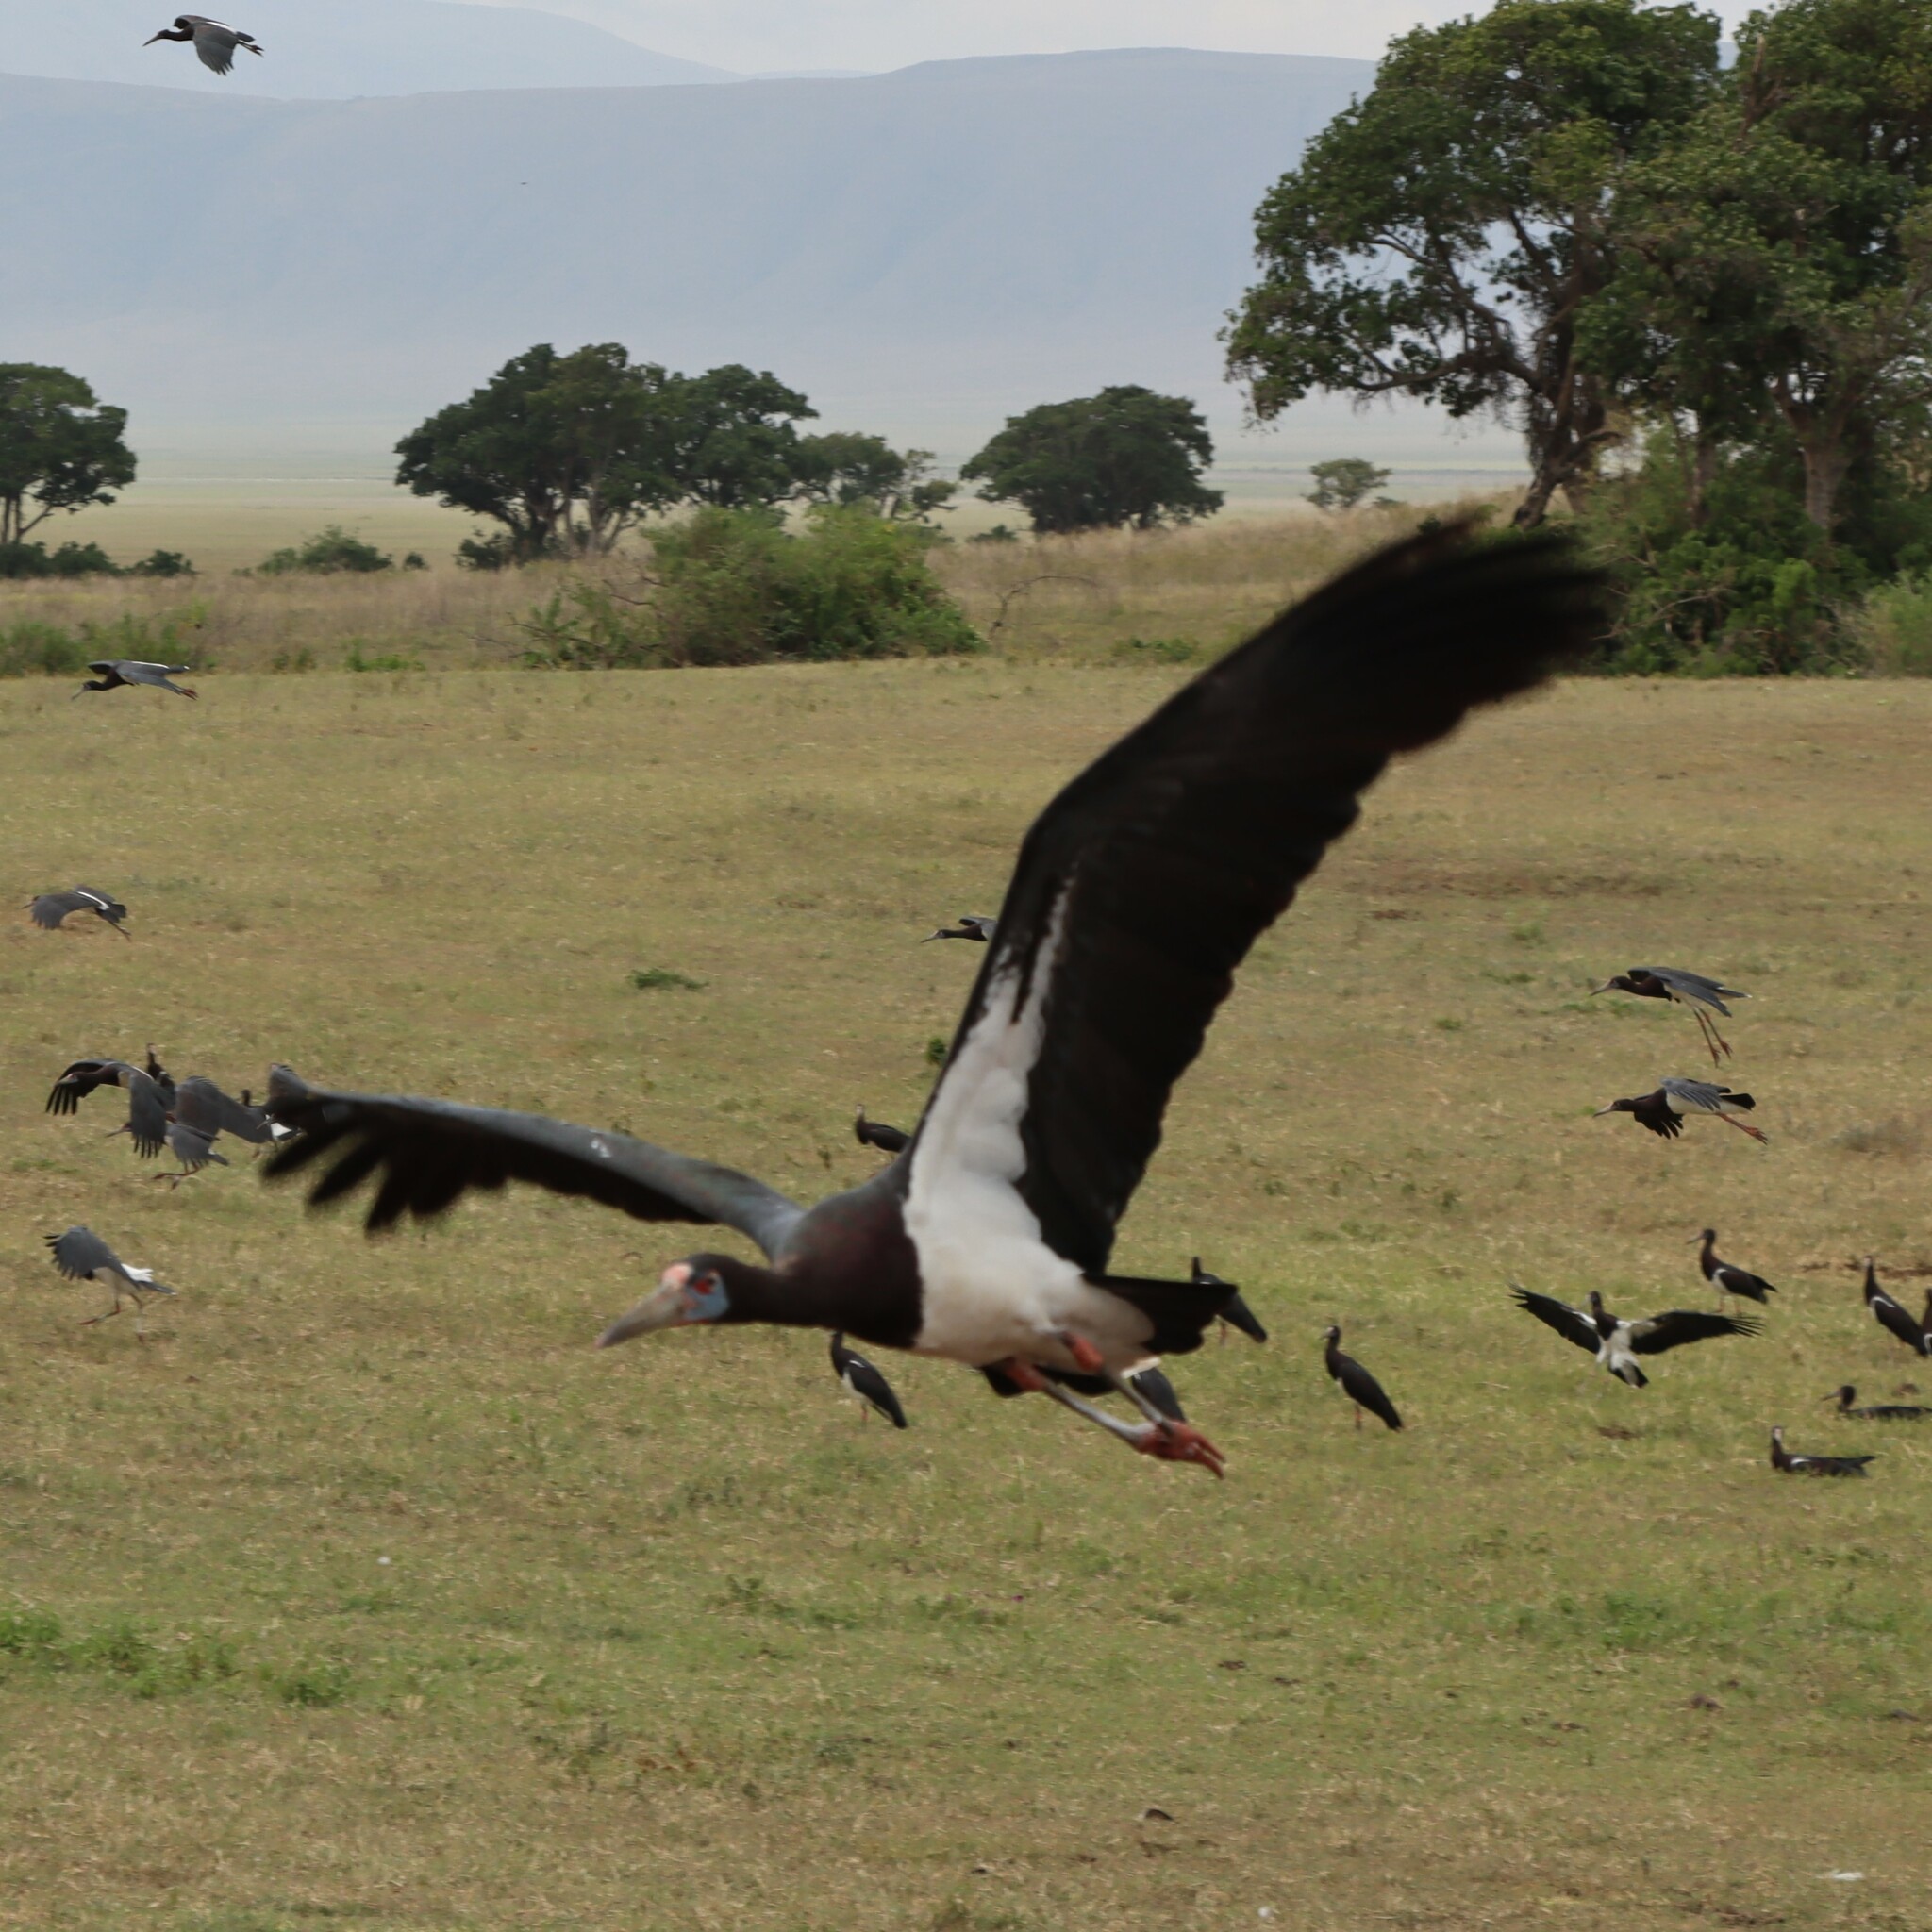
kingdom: Animalia
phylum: Chordata
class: Aves
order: Ciconiiformes
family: Ciconiidae
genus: Ciconia
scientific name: Ciconia abdimii
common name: Abdim's stork
